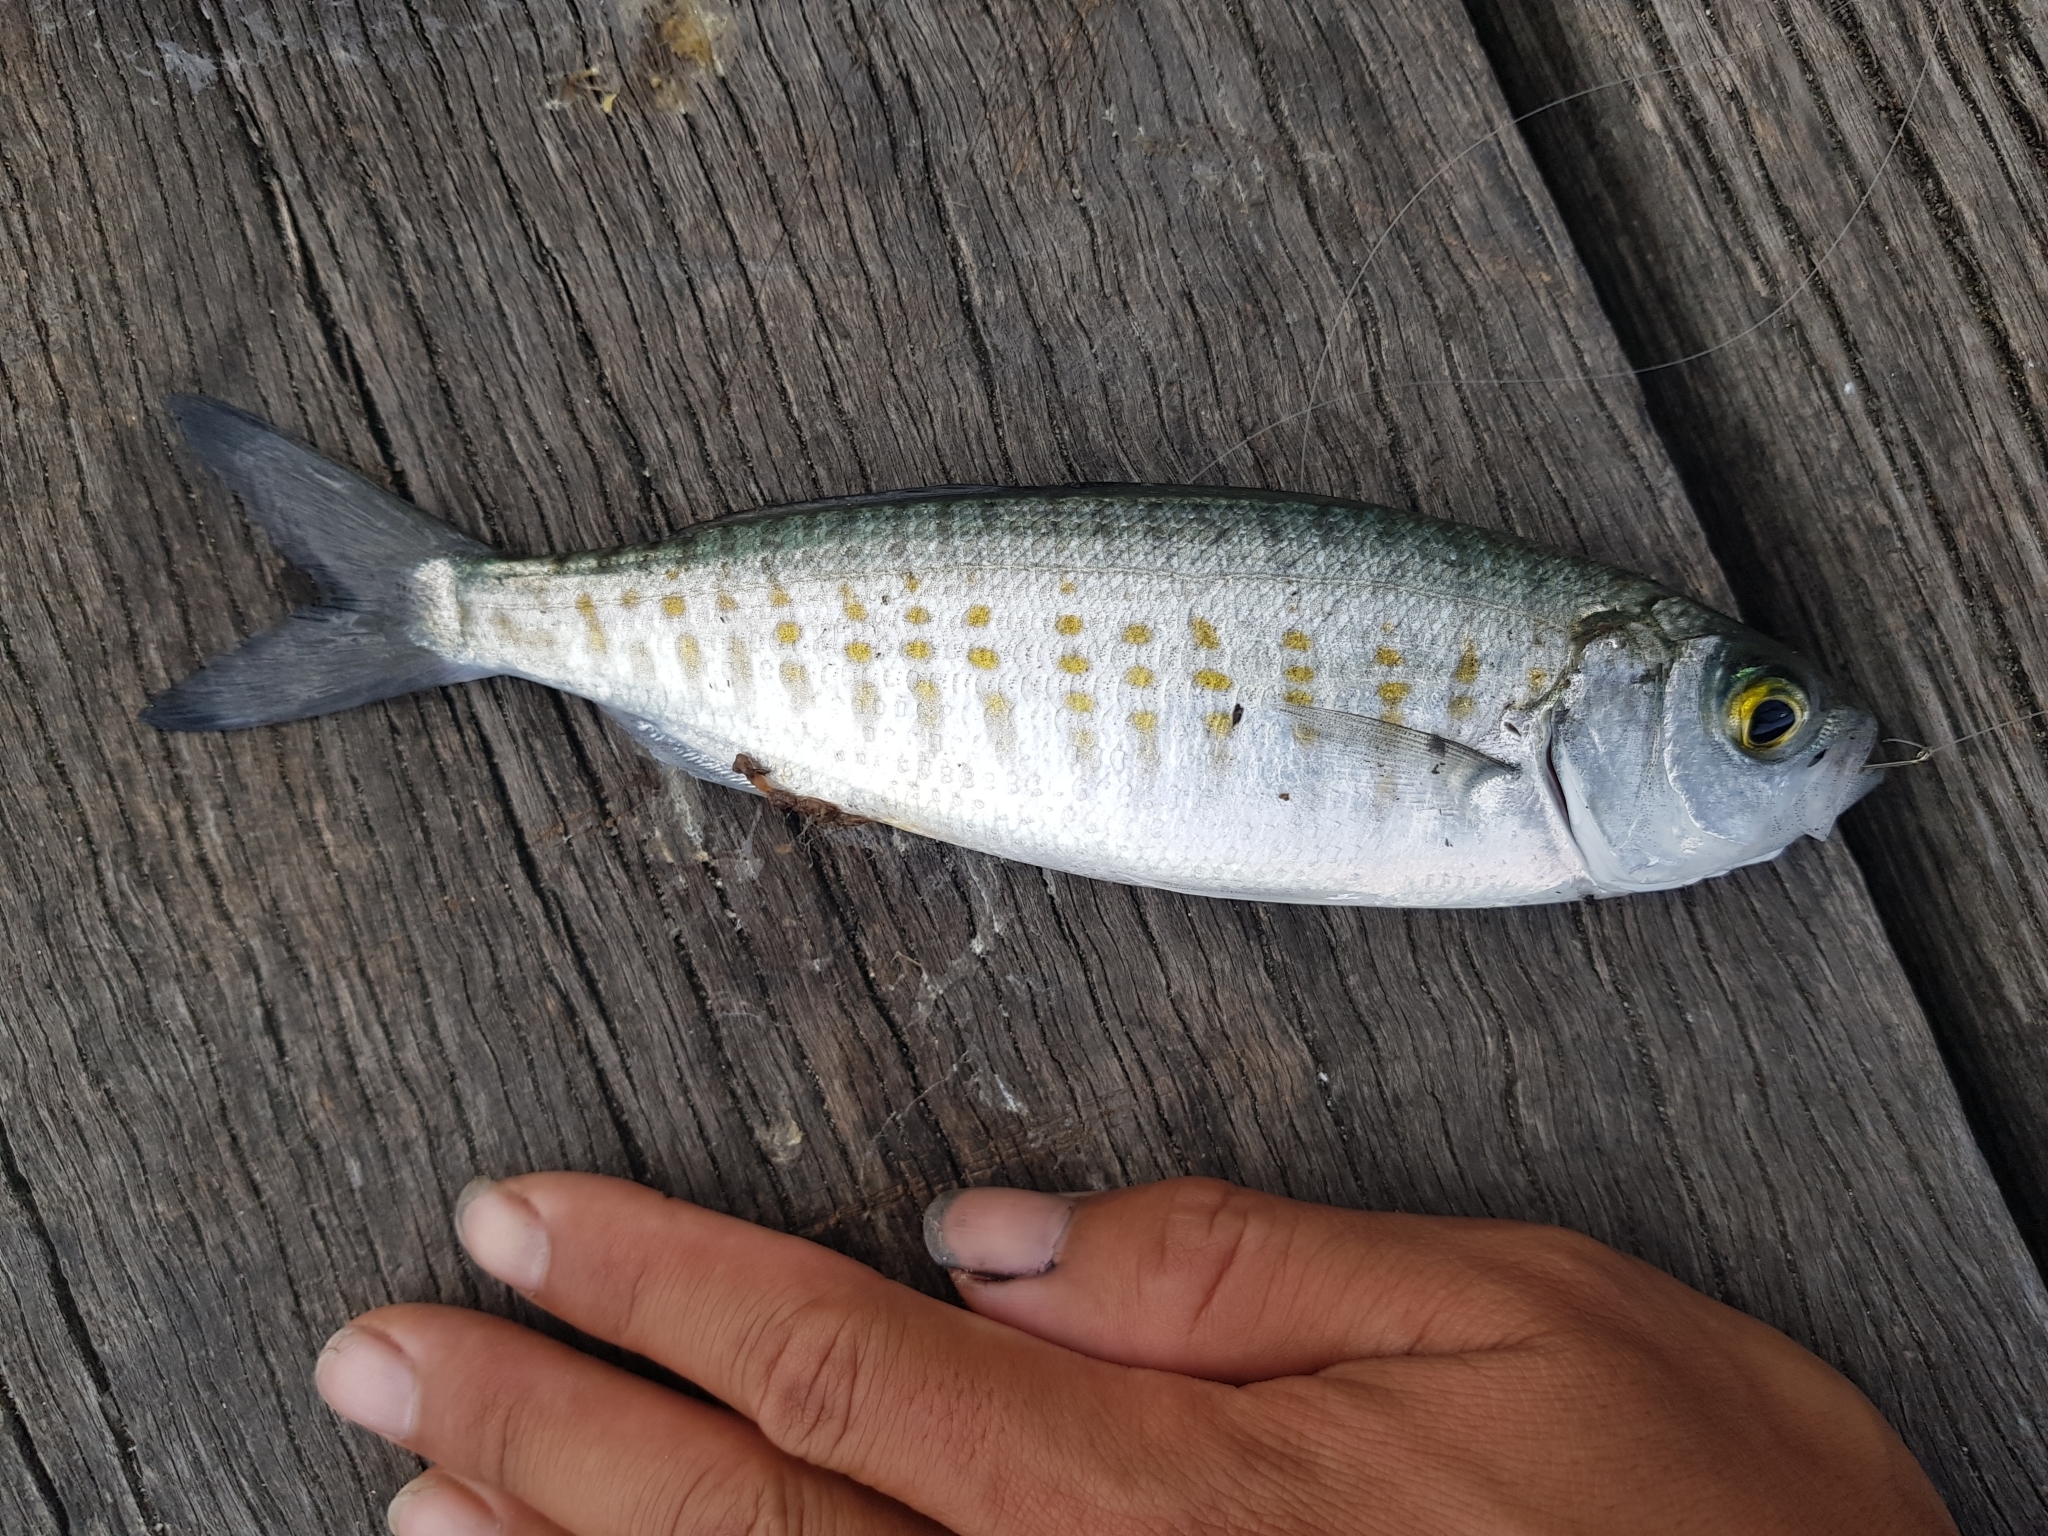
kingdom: Animalia
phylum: Chordata
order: Perciformes
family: Arripidae
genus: Arripis
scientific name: Arripis georgianus
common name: Australian herring
